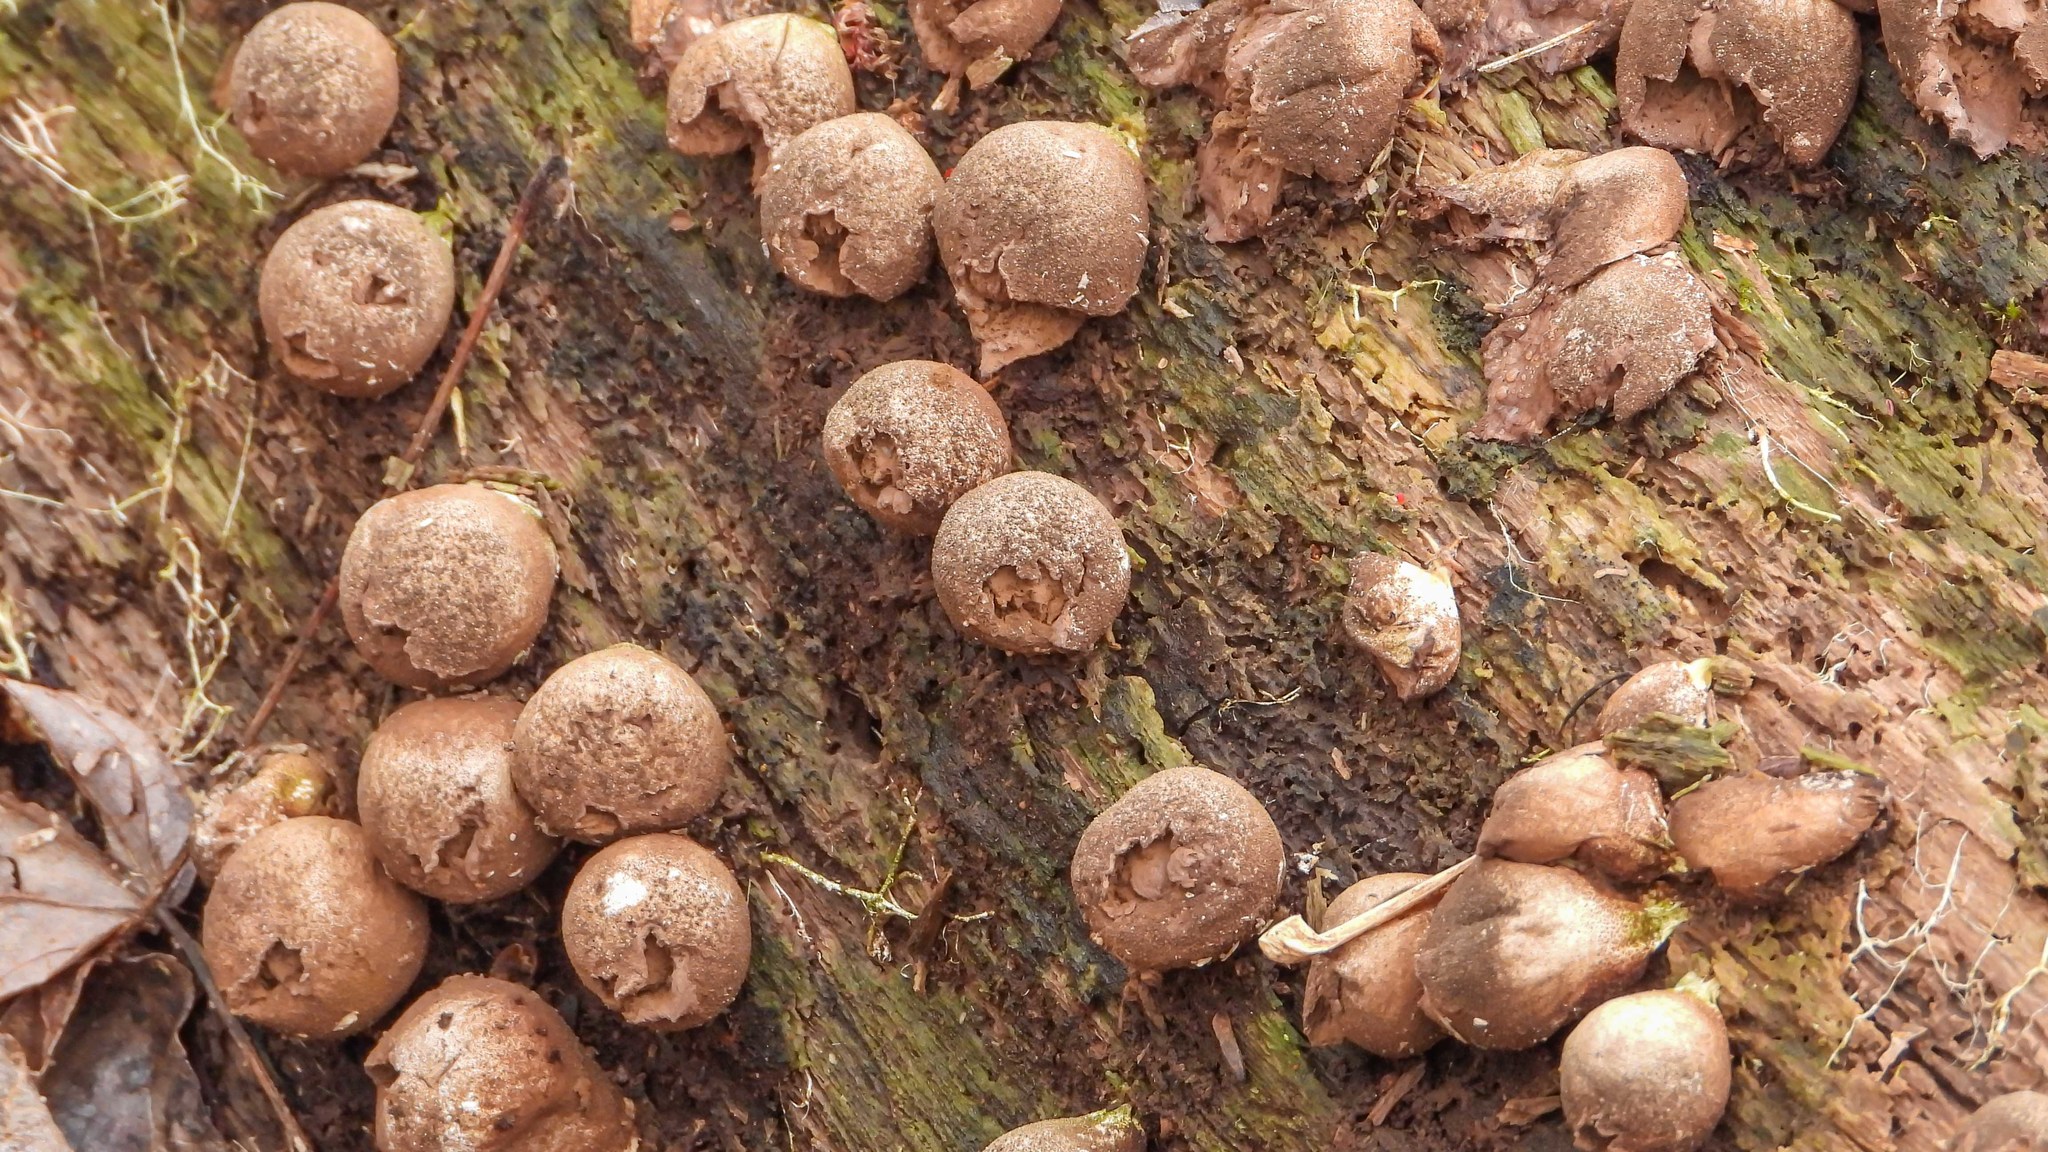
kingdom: Fungi
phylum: Basidiomycota
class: Agaricomycetes
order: Agaricales
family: Lycoperdaceae
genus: Apioperdon
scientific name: Apioperdon pyriforme
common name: Pear-shaped puffball
